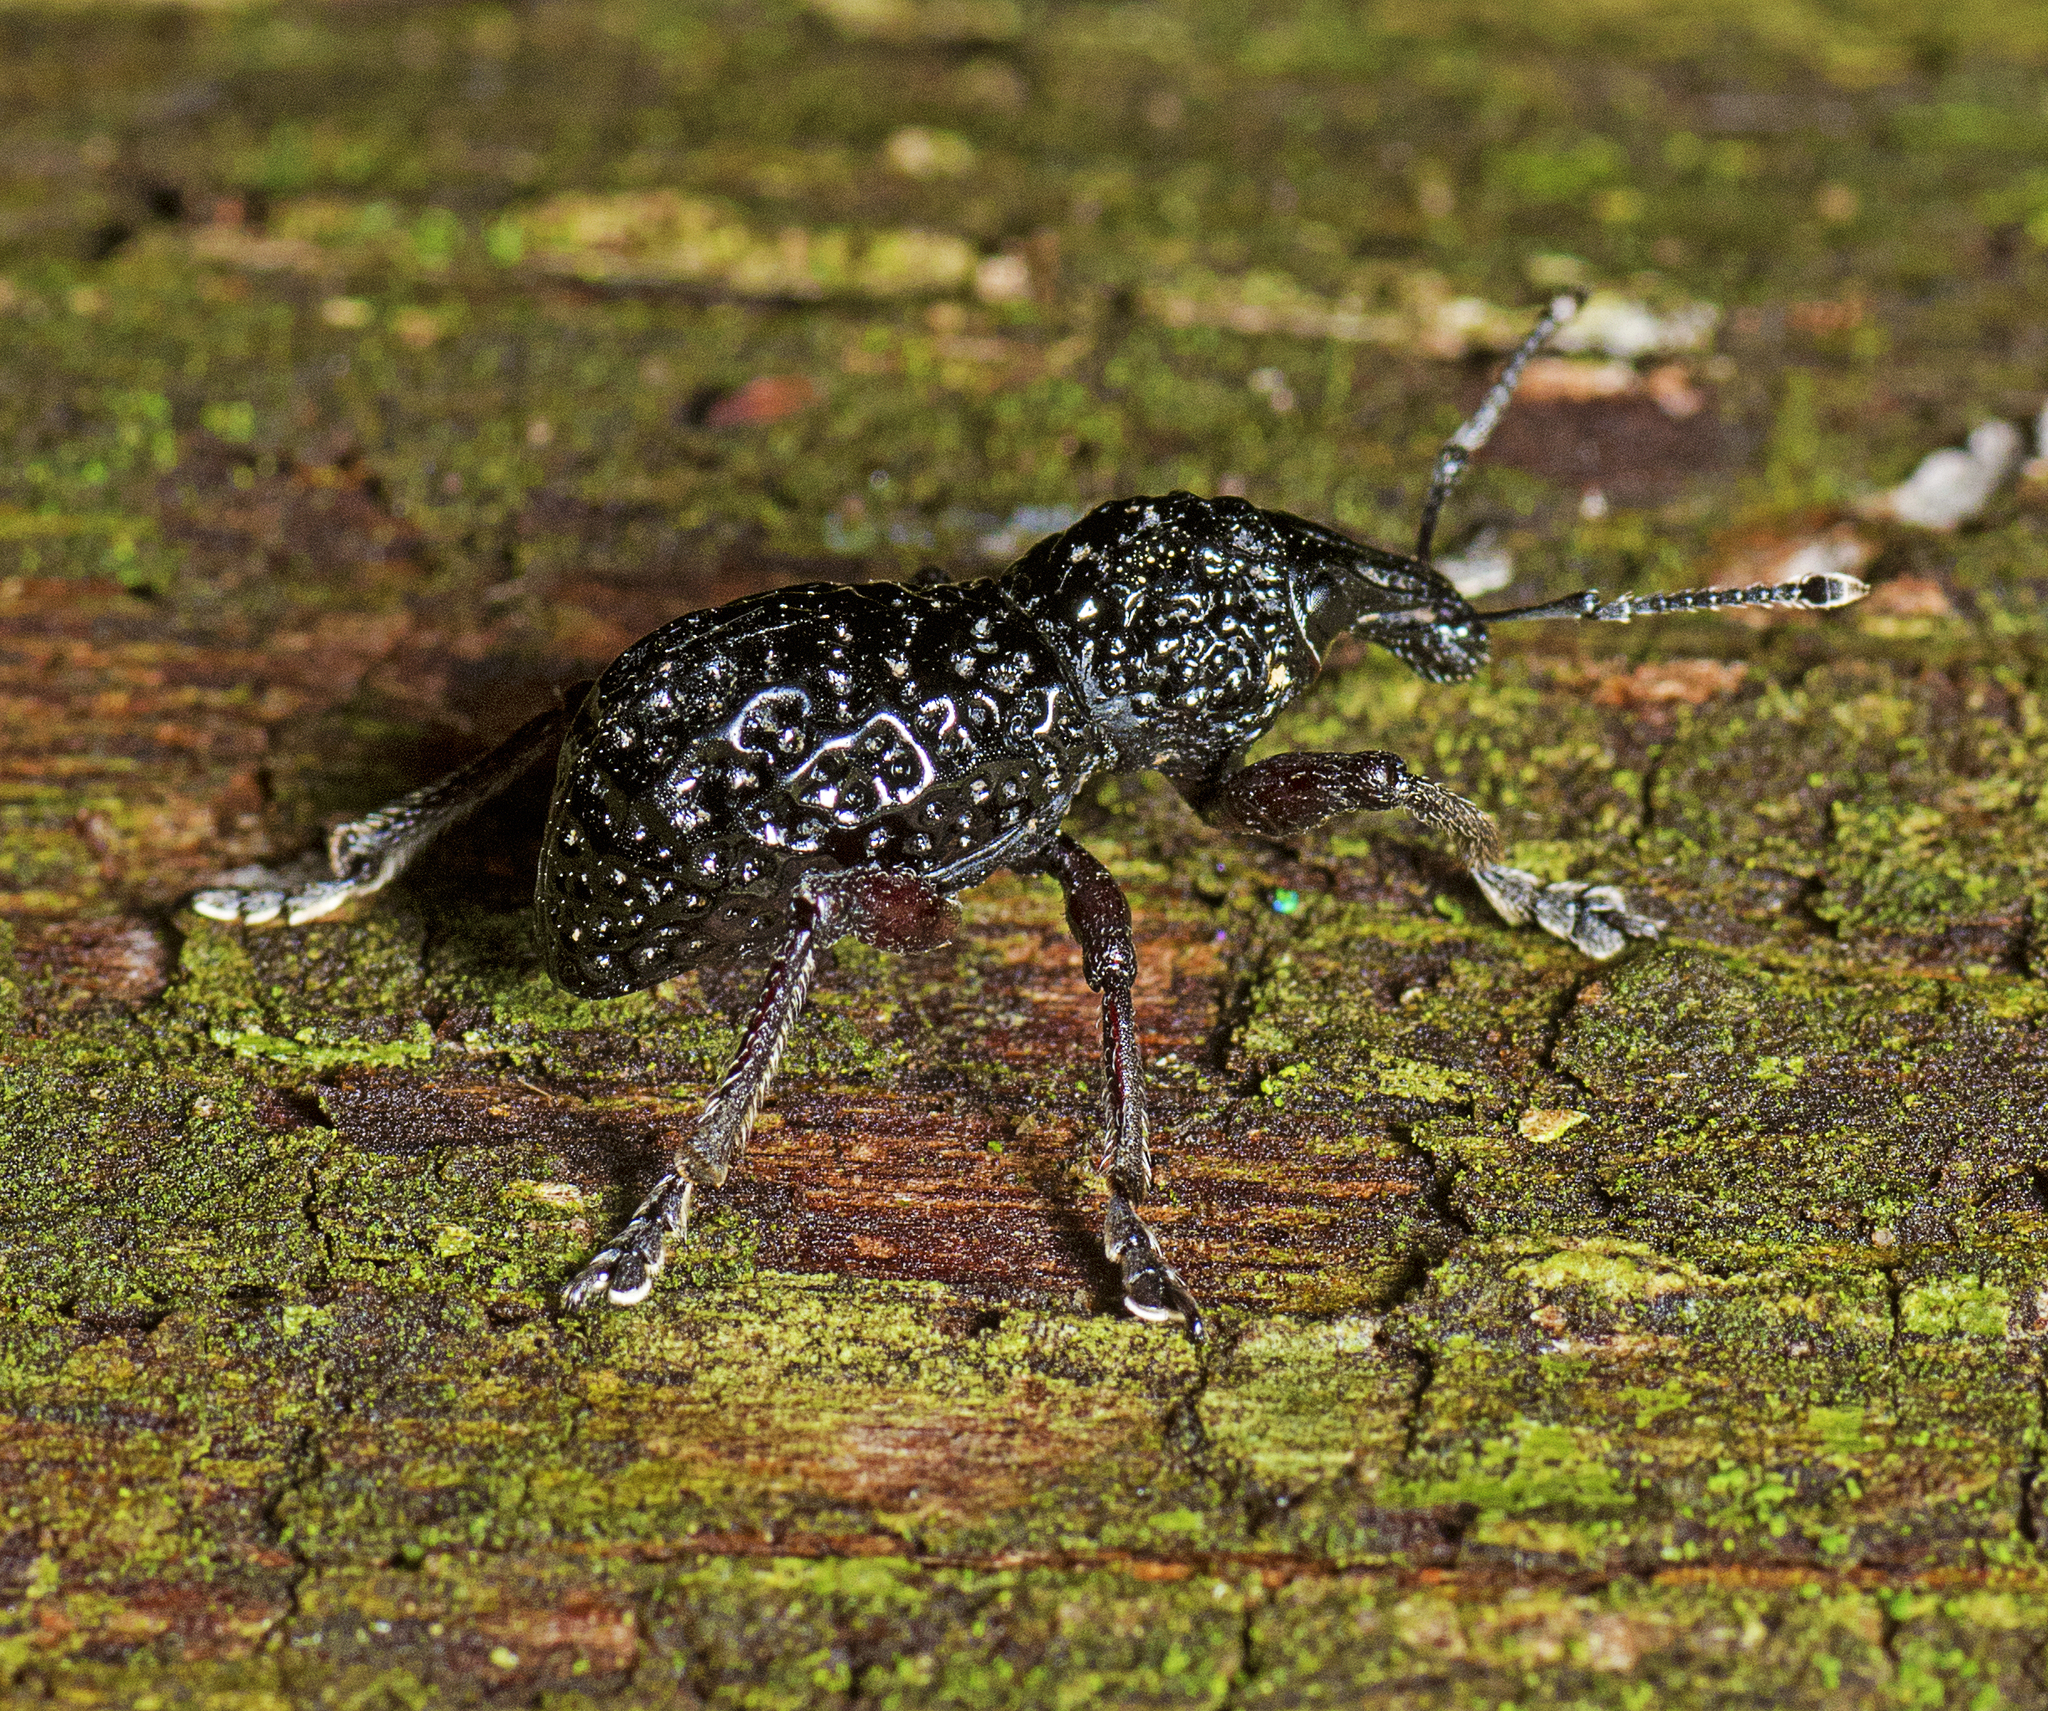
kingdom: Animalia
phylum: Arthropoda
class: Insecta
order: Coleoptera
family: Curculionidae
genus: Zymaus
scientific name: Zymaus angustus
